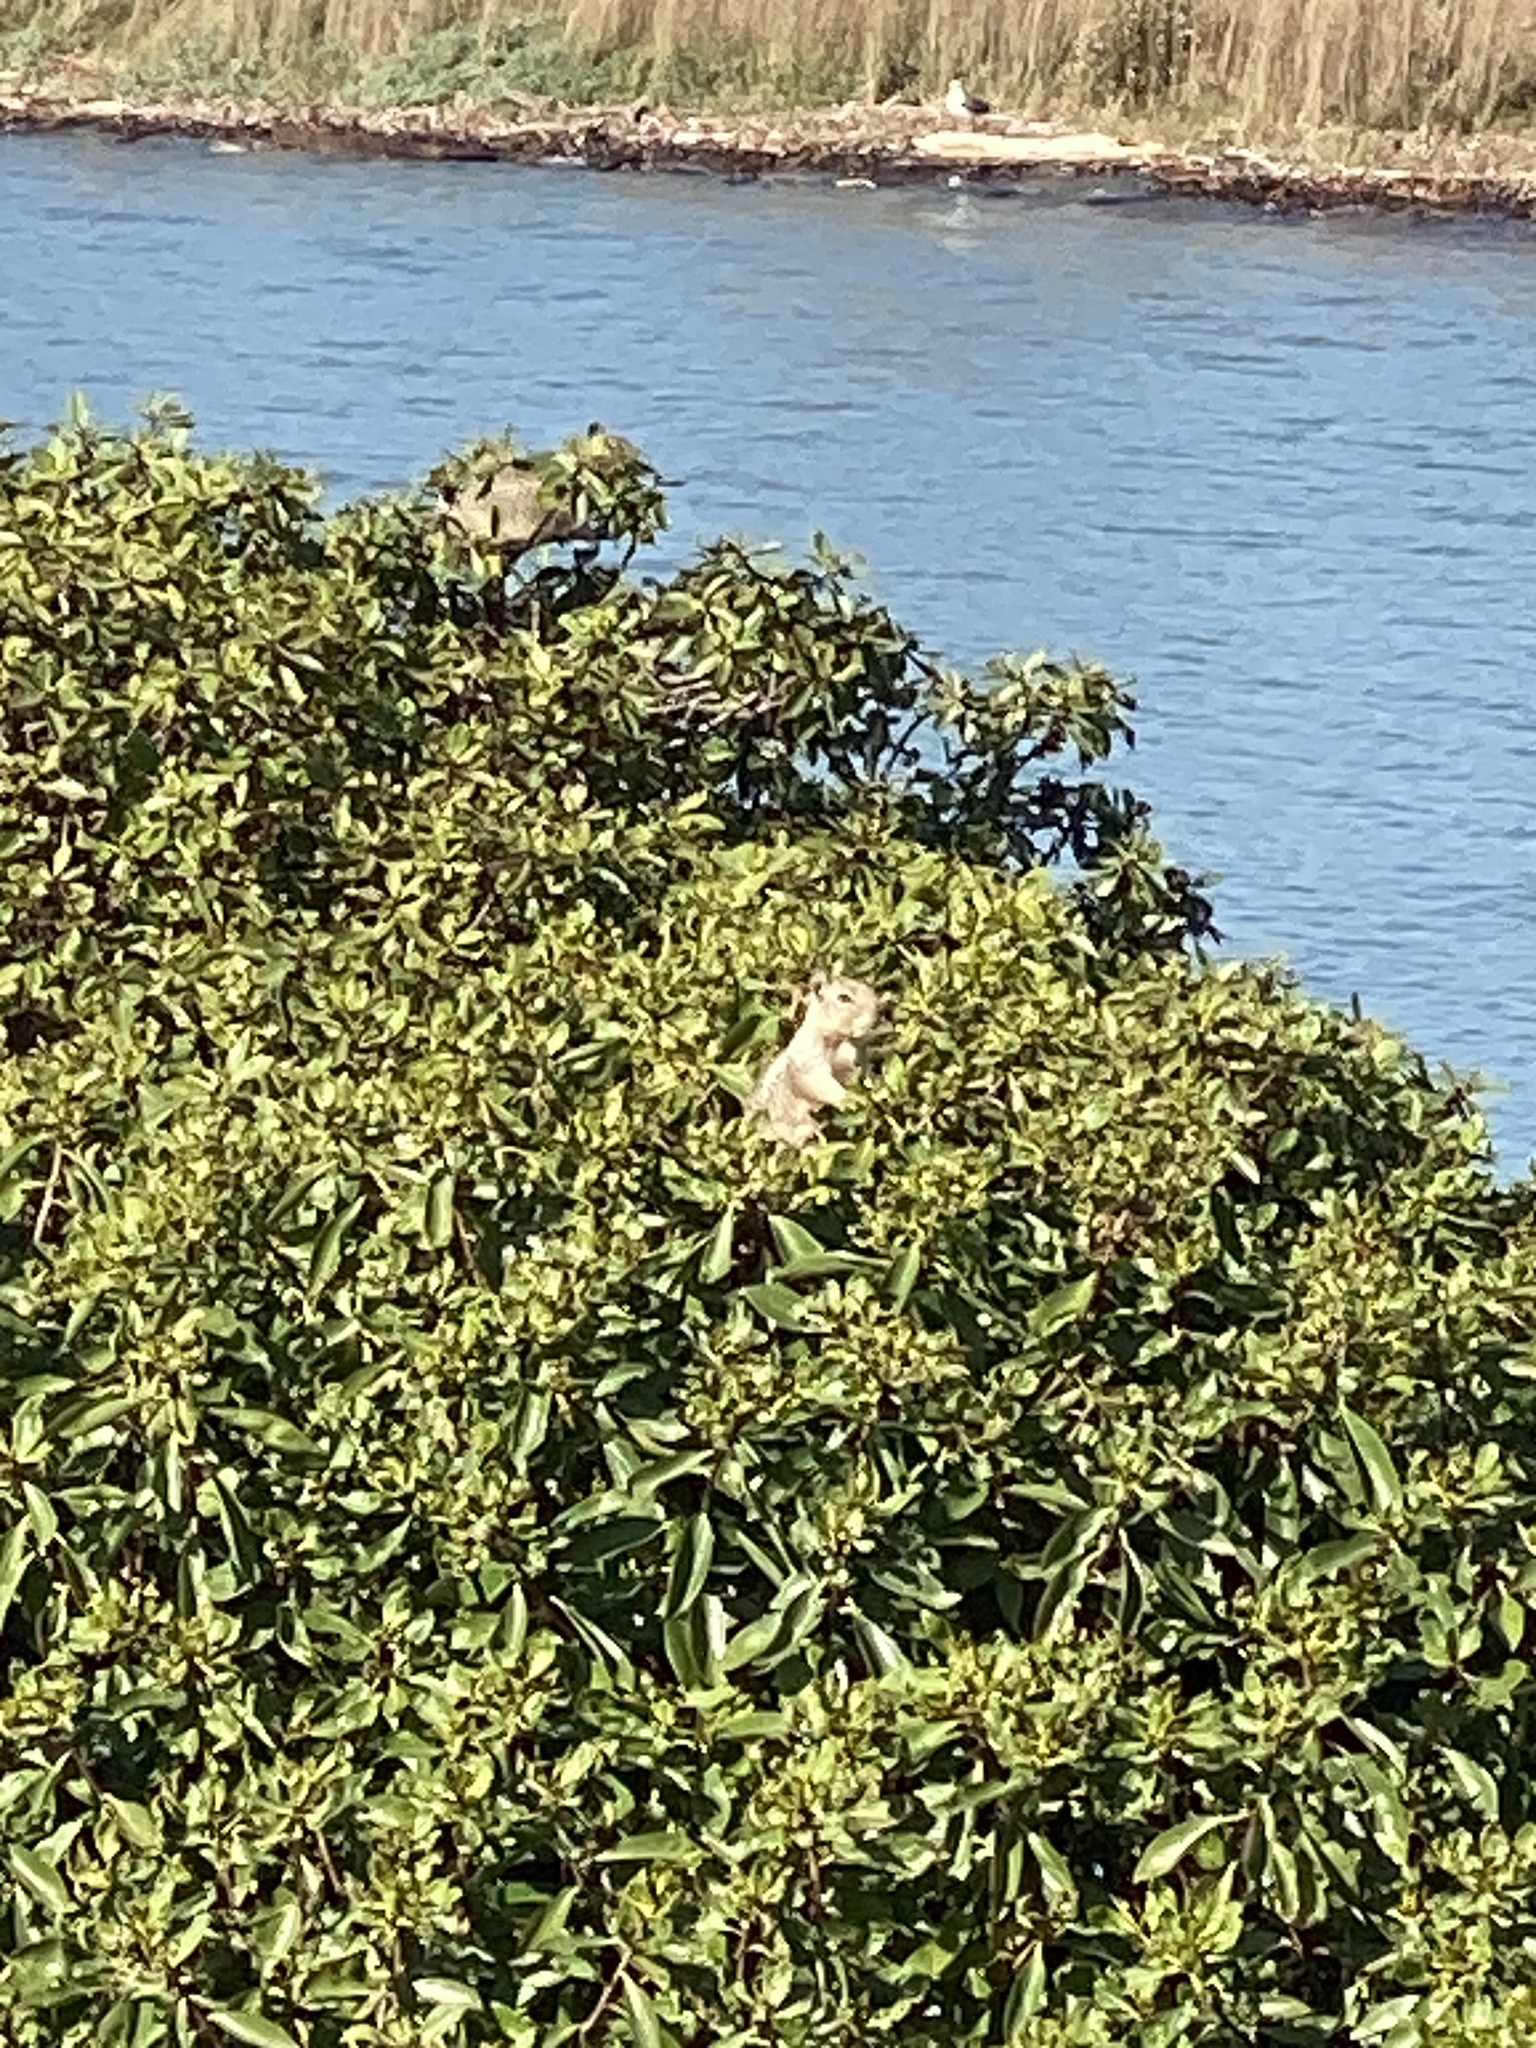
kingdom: Animalia
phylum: Chordata
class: Mammalia
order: Rodentia
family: Sciuridae
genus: Otospermophilus
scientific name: Otospermophilus beecheyi
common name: California ground squirrel
